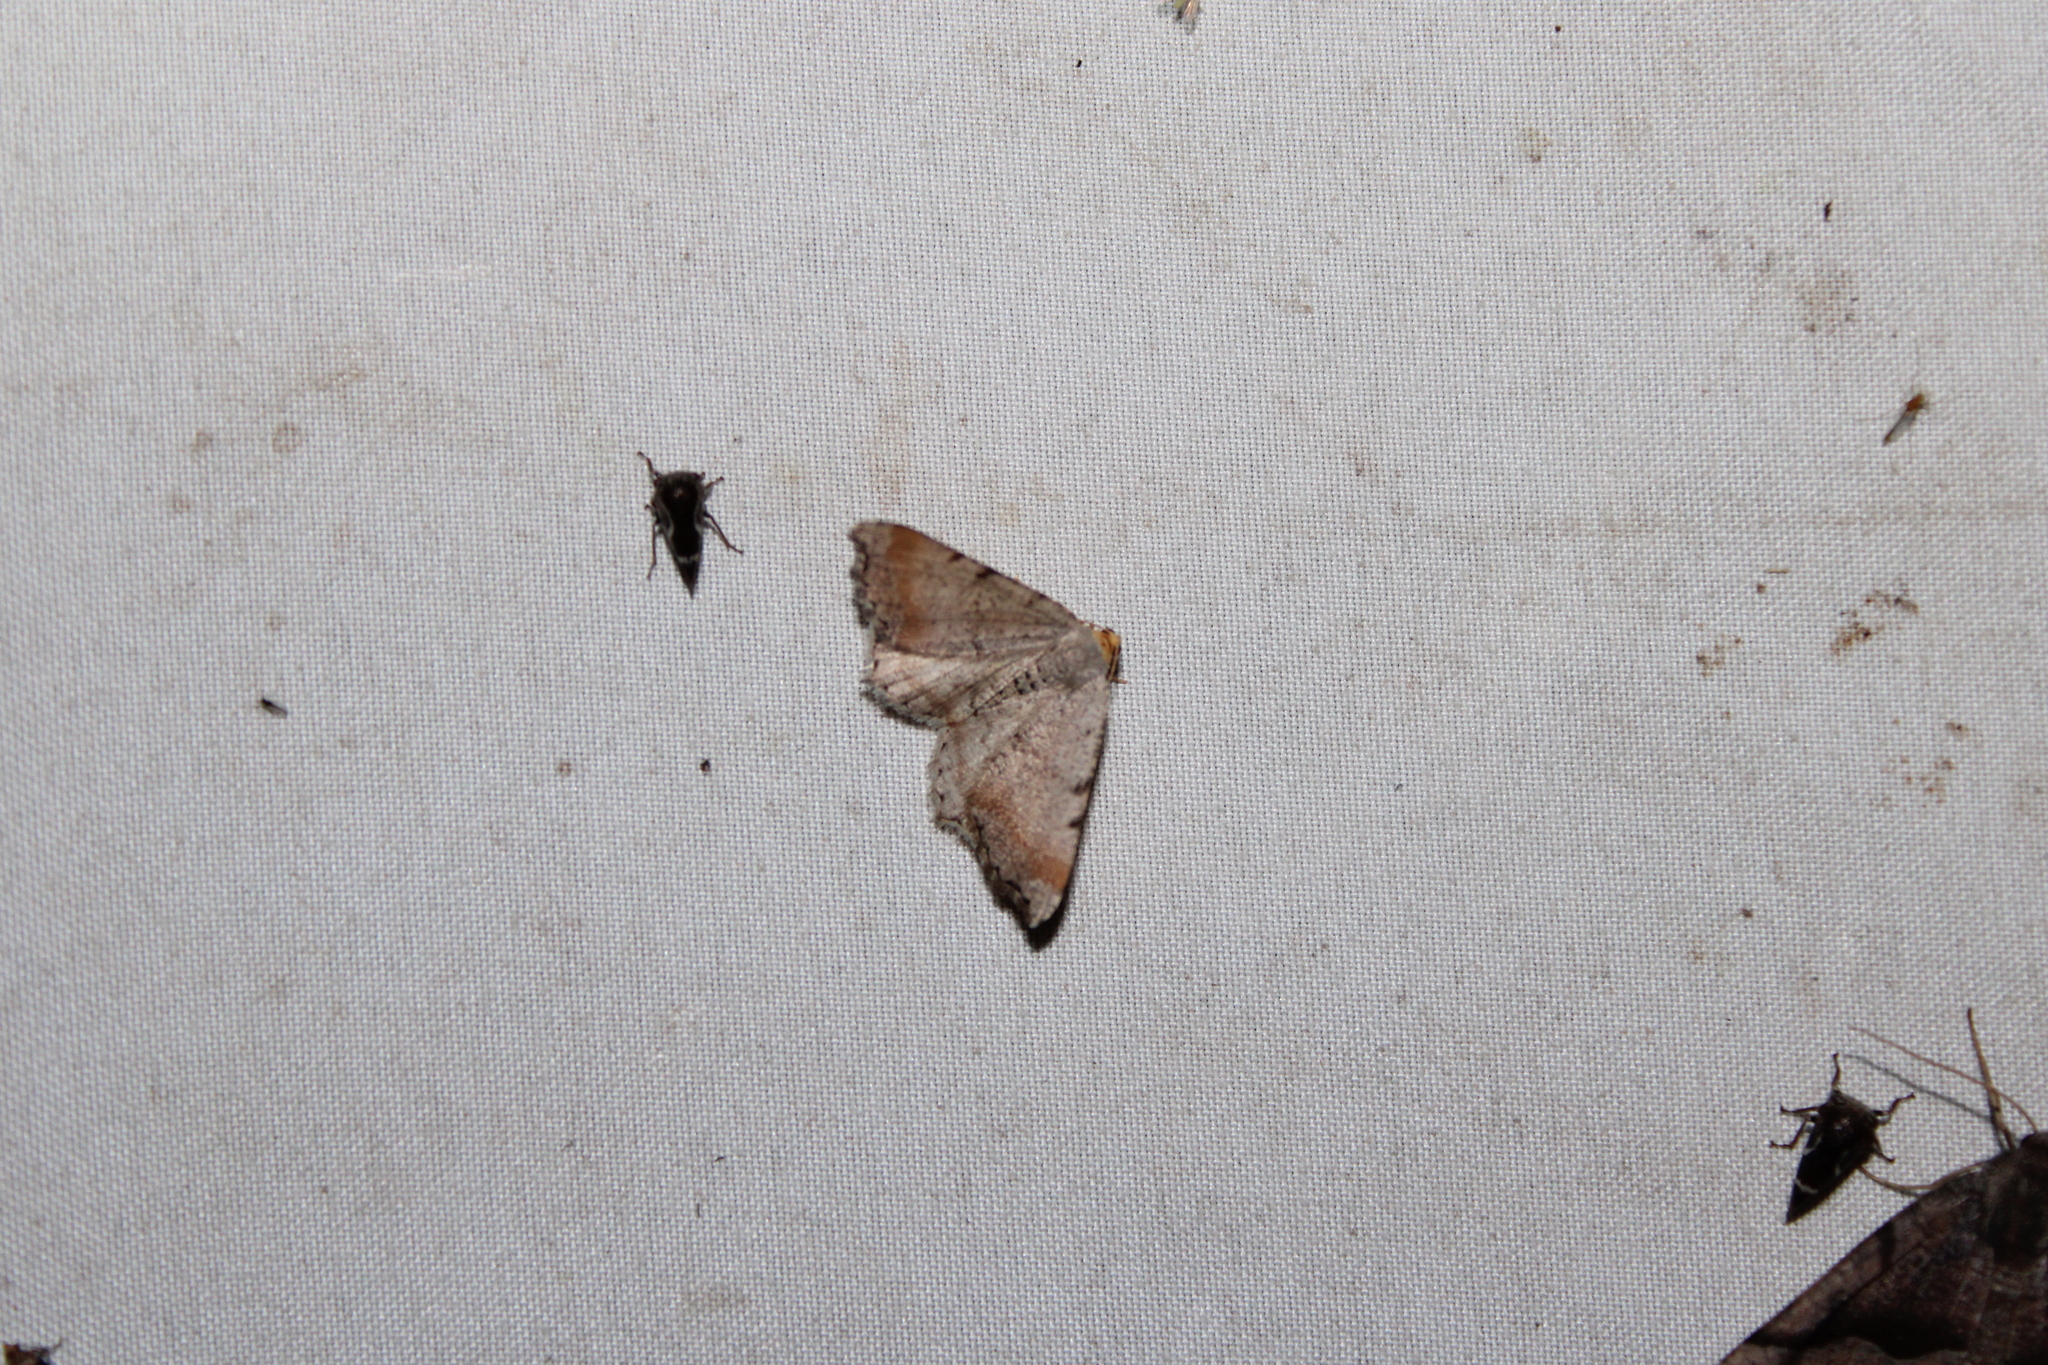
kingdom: Animalia
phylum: Arthropoda
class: Insecta
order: Lepidoptera
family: Geometridae
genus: Macaria
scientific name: Macaria minorata
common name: Minor angle moth
